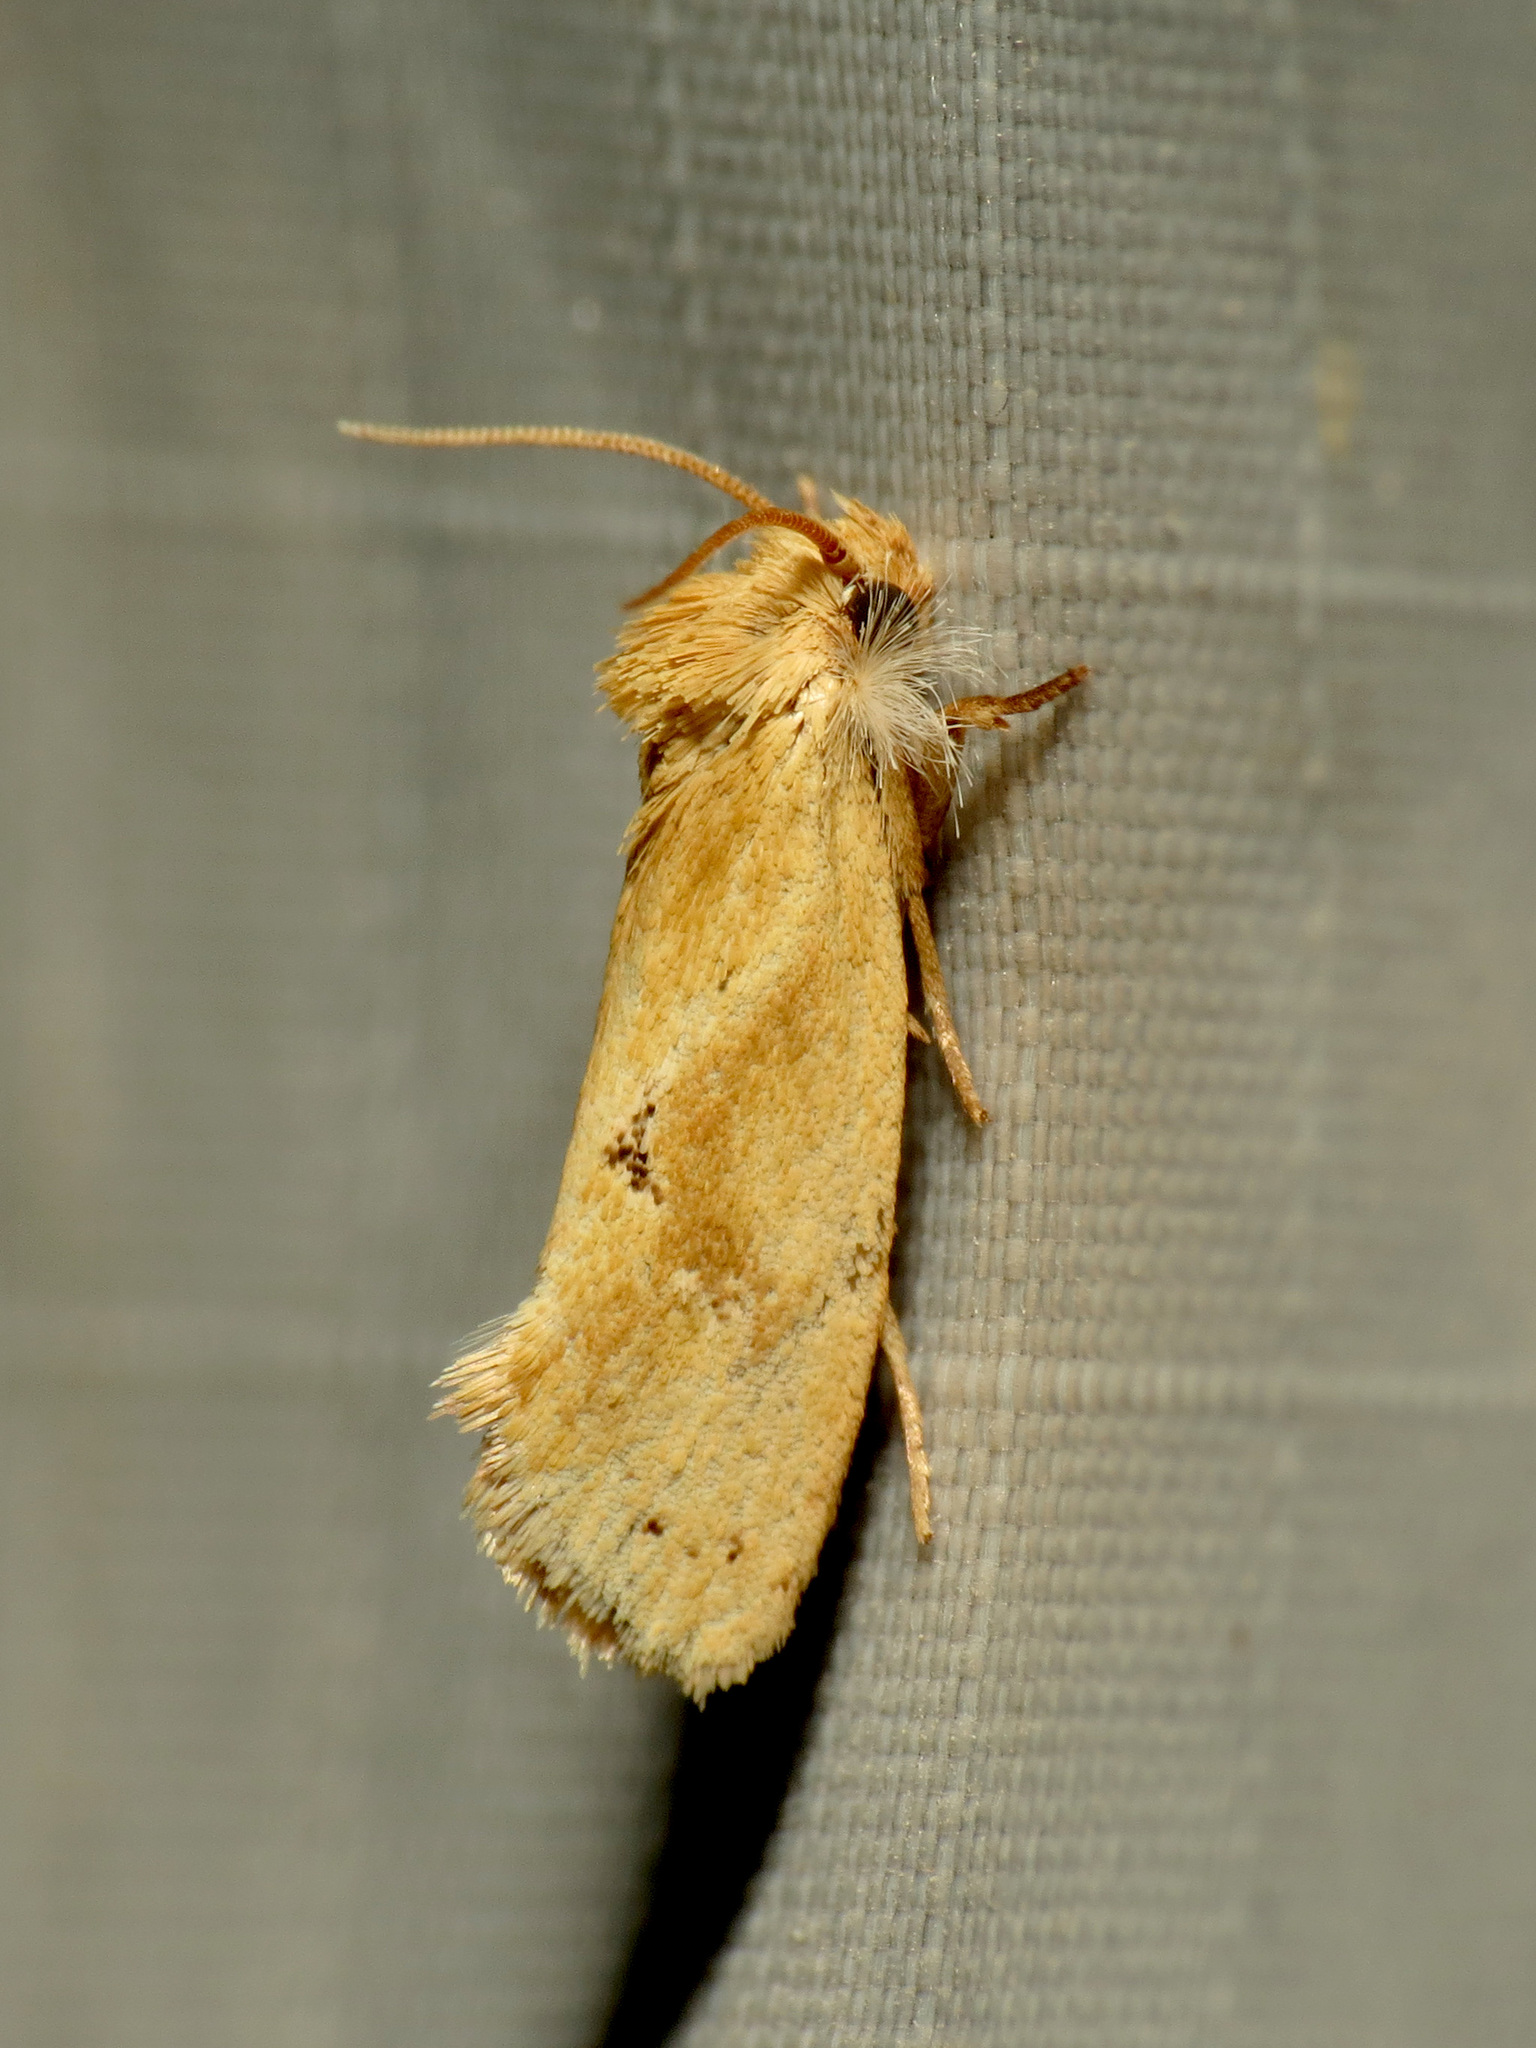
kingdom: Animalia
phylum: Arthropoda
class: Insecta
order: Lepidoptera
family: Tineidae
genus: Acrolophus
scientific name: Acrolophus laticapitana
